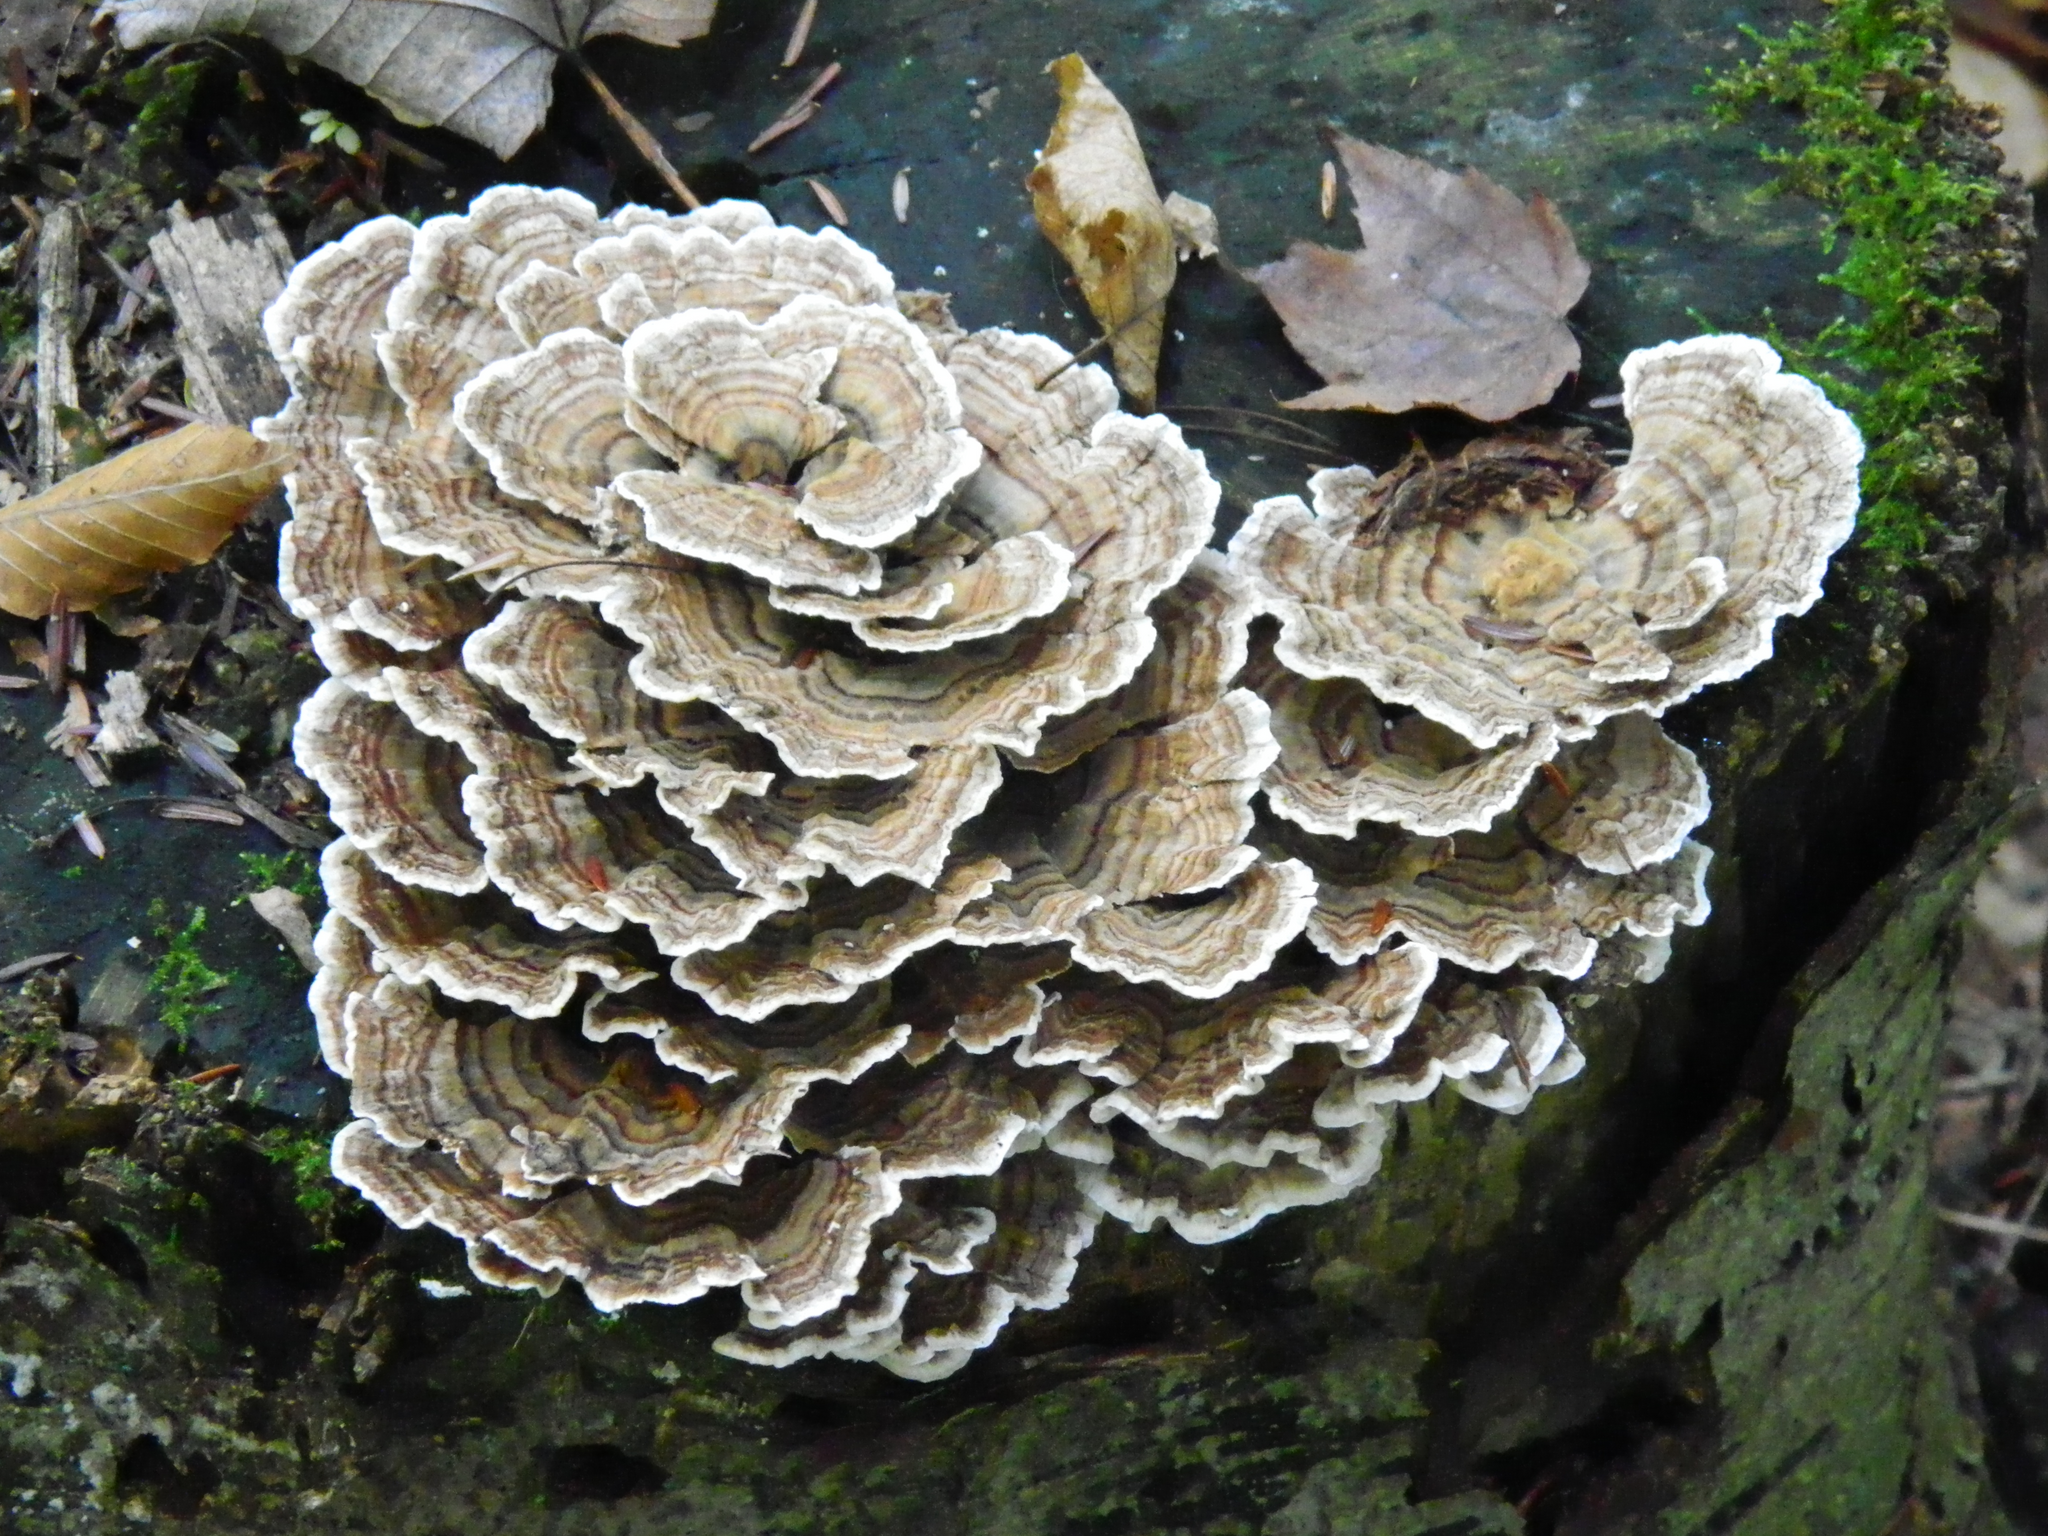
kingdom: Fungi
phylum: Basidiomycota
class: Agaricomycetes
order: Polyporales
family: Polyporaceae
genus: Trametes
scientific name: Trametes versicolor
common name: Turkeytail
